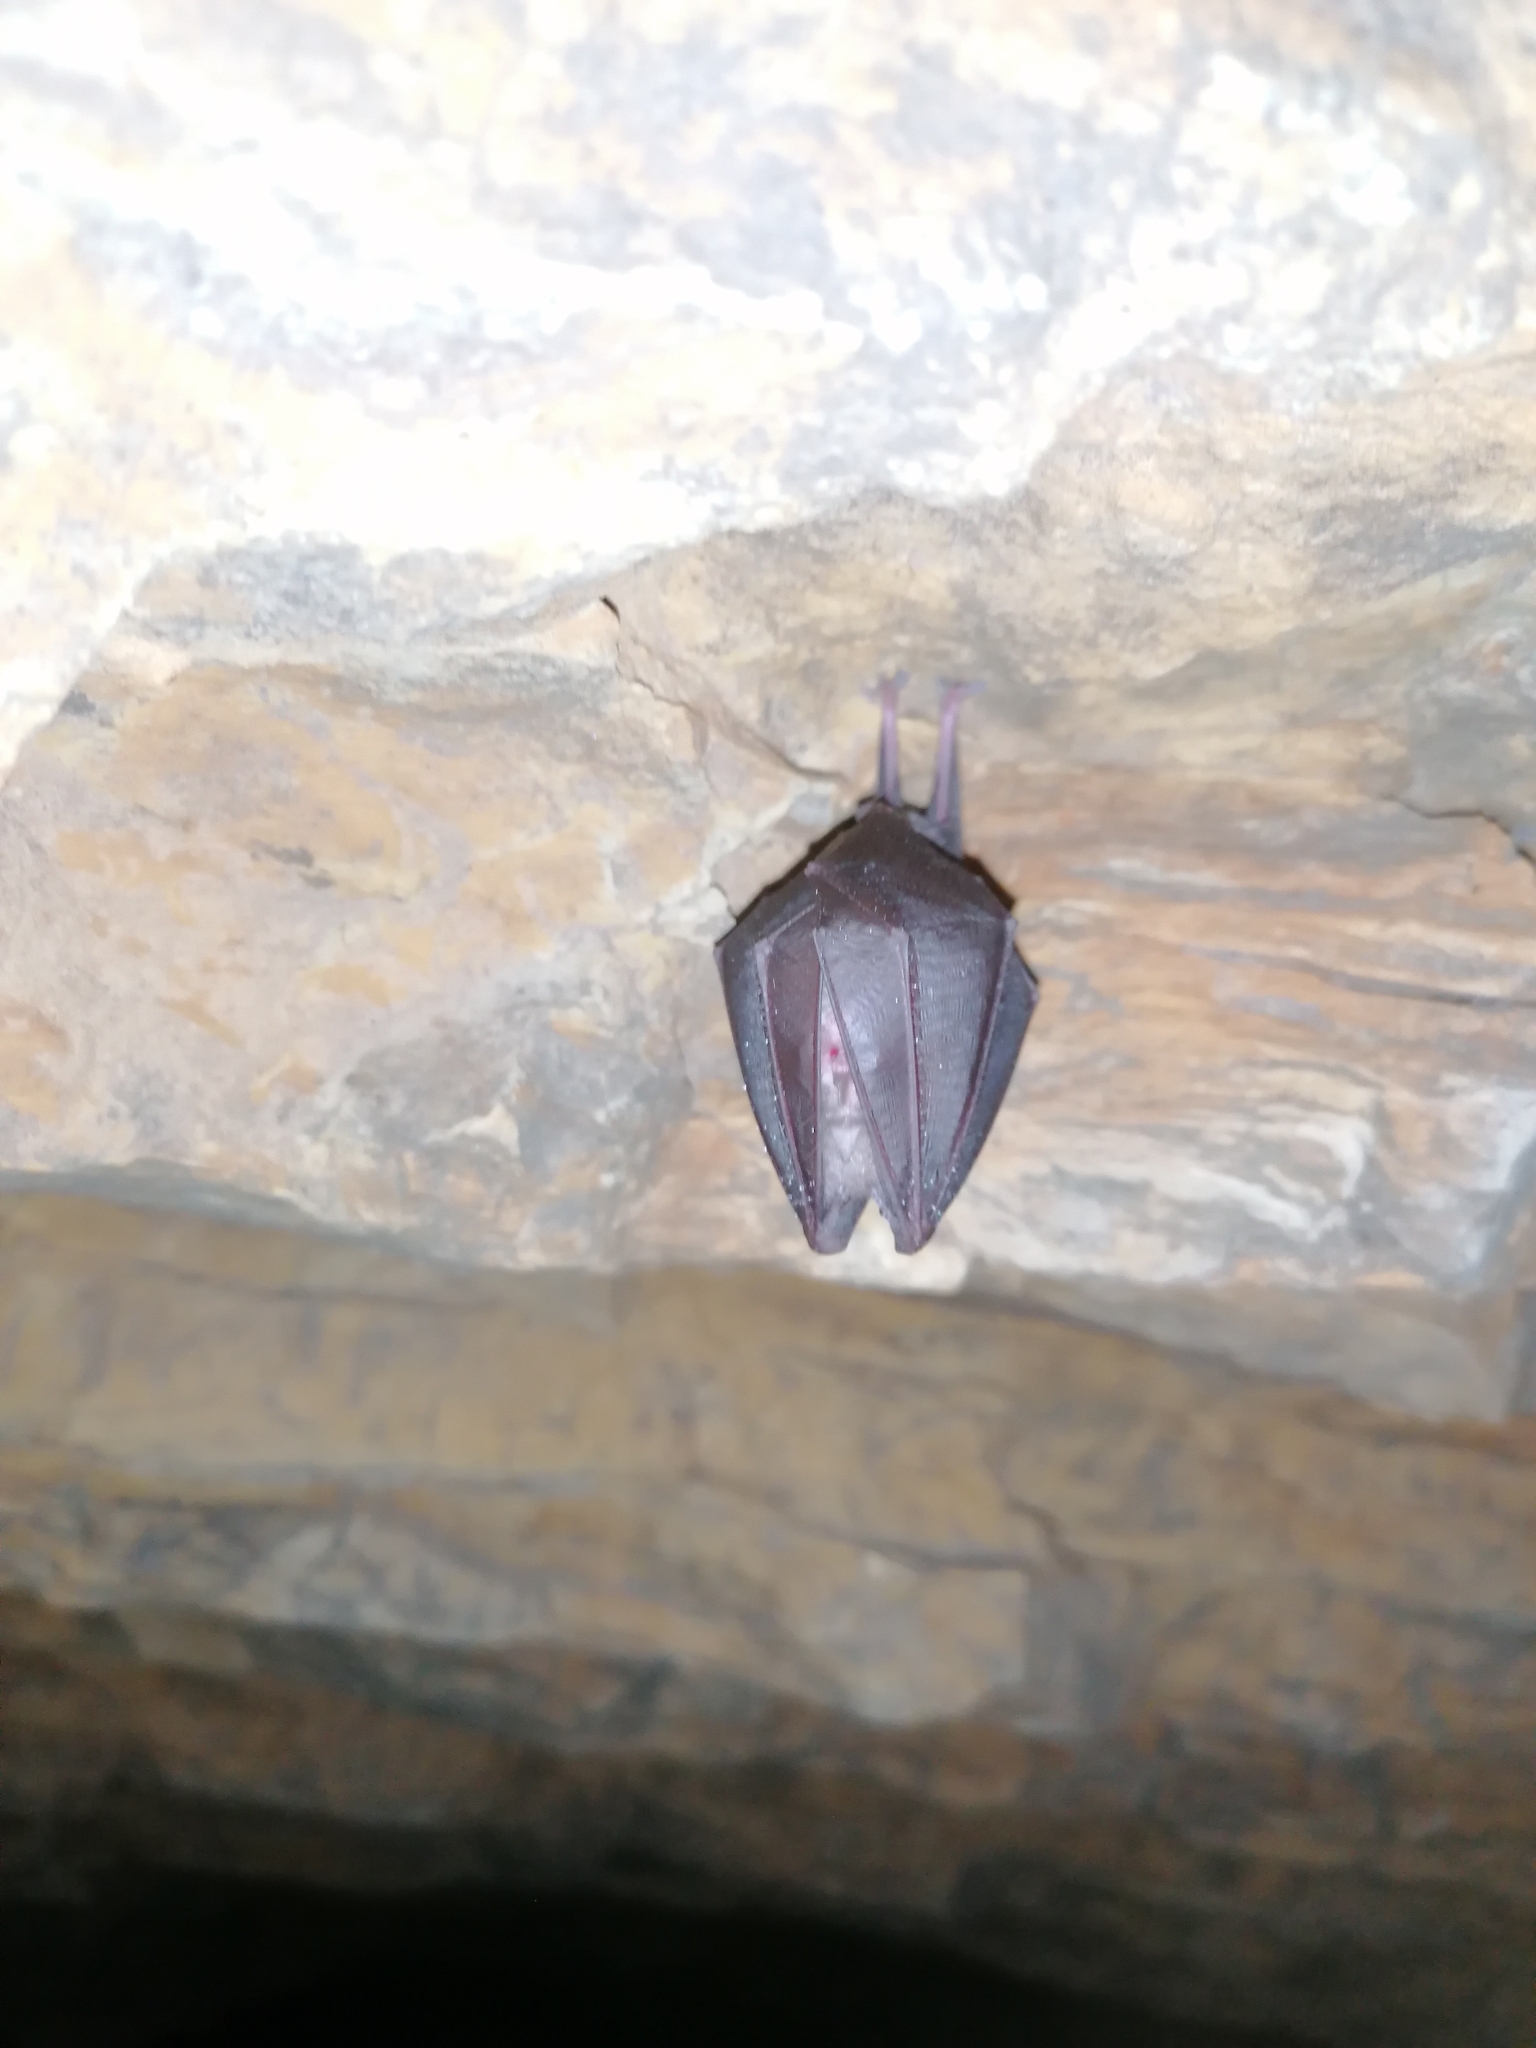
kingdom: Animalia
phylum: Chordata
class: Mammalia
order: Chiroptera
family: Rhinolophidae
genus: Rhinolophus
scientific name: Rhinolophus hipposideros
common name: Lesser horseshoe bat
